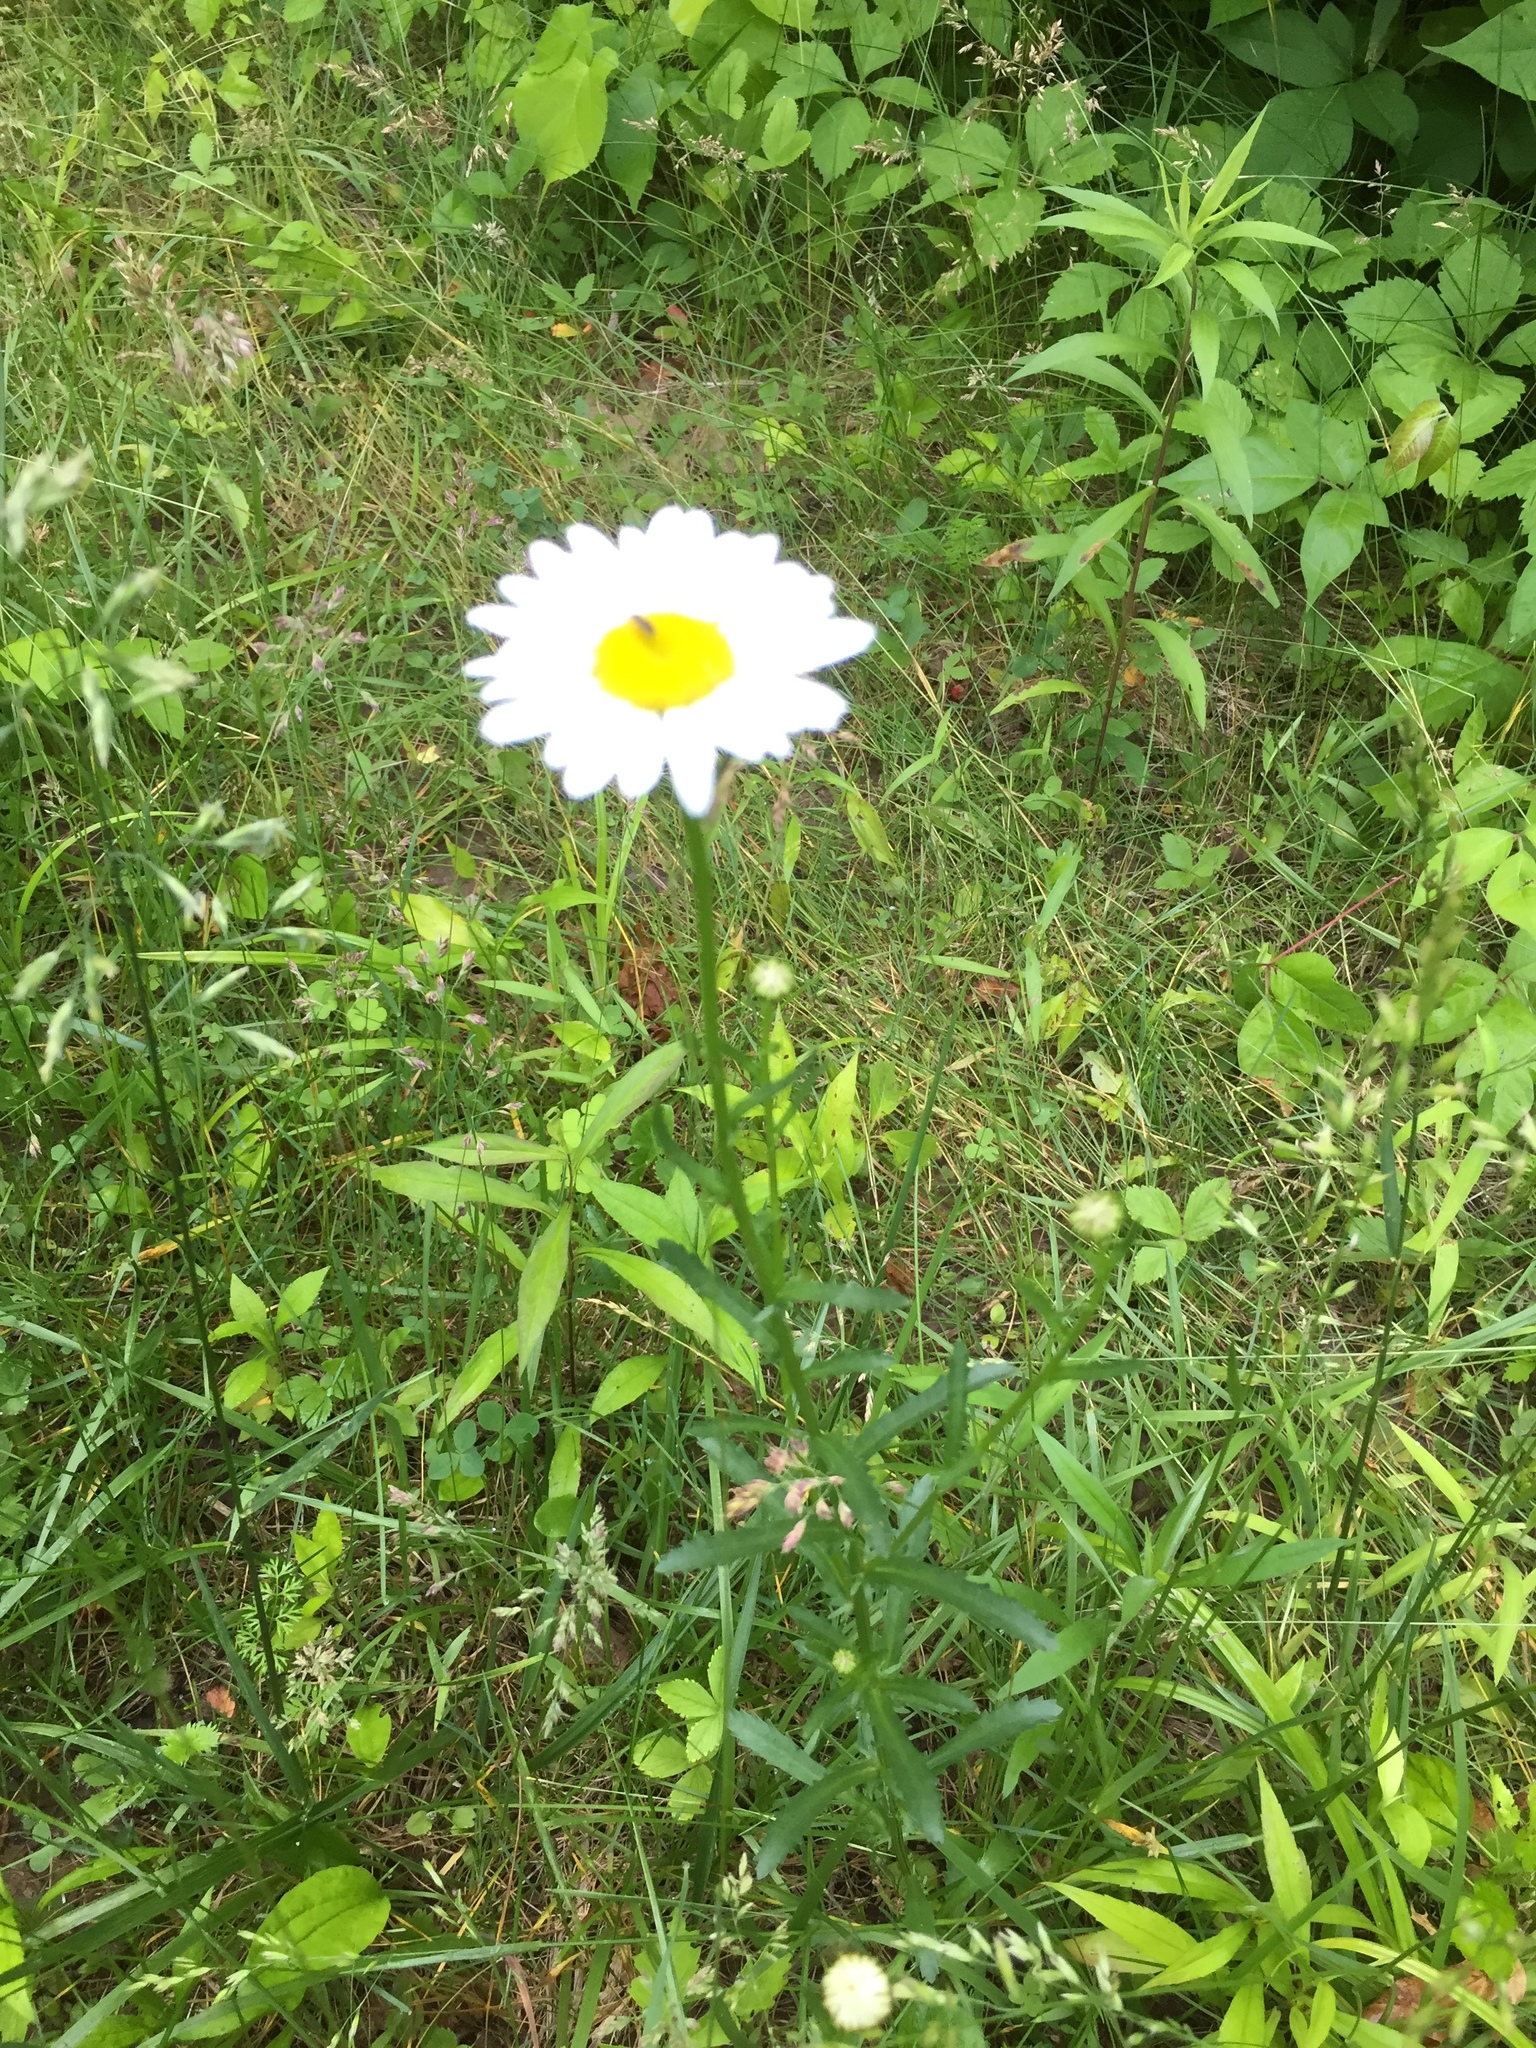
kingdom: Plantae
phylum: Tracheophyta
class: Magnoliopsida
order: Asterales
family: Asteraceae
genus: Leucanthemum
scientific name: Leucanthemum vulgare
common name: Oxeye daisy
